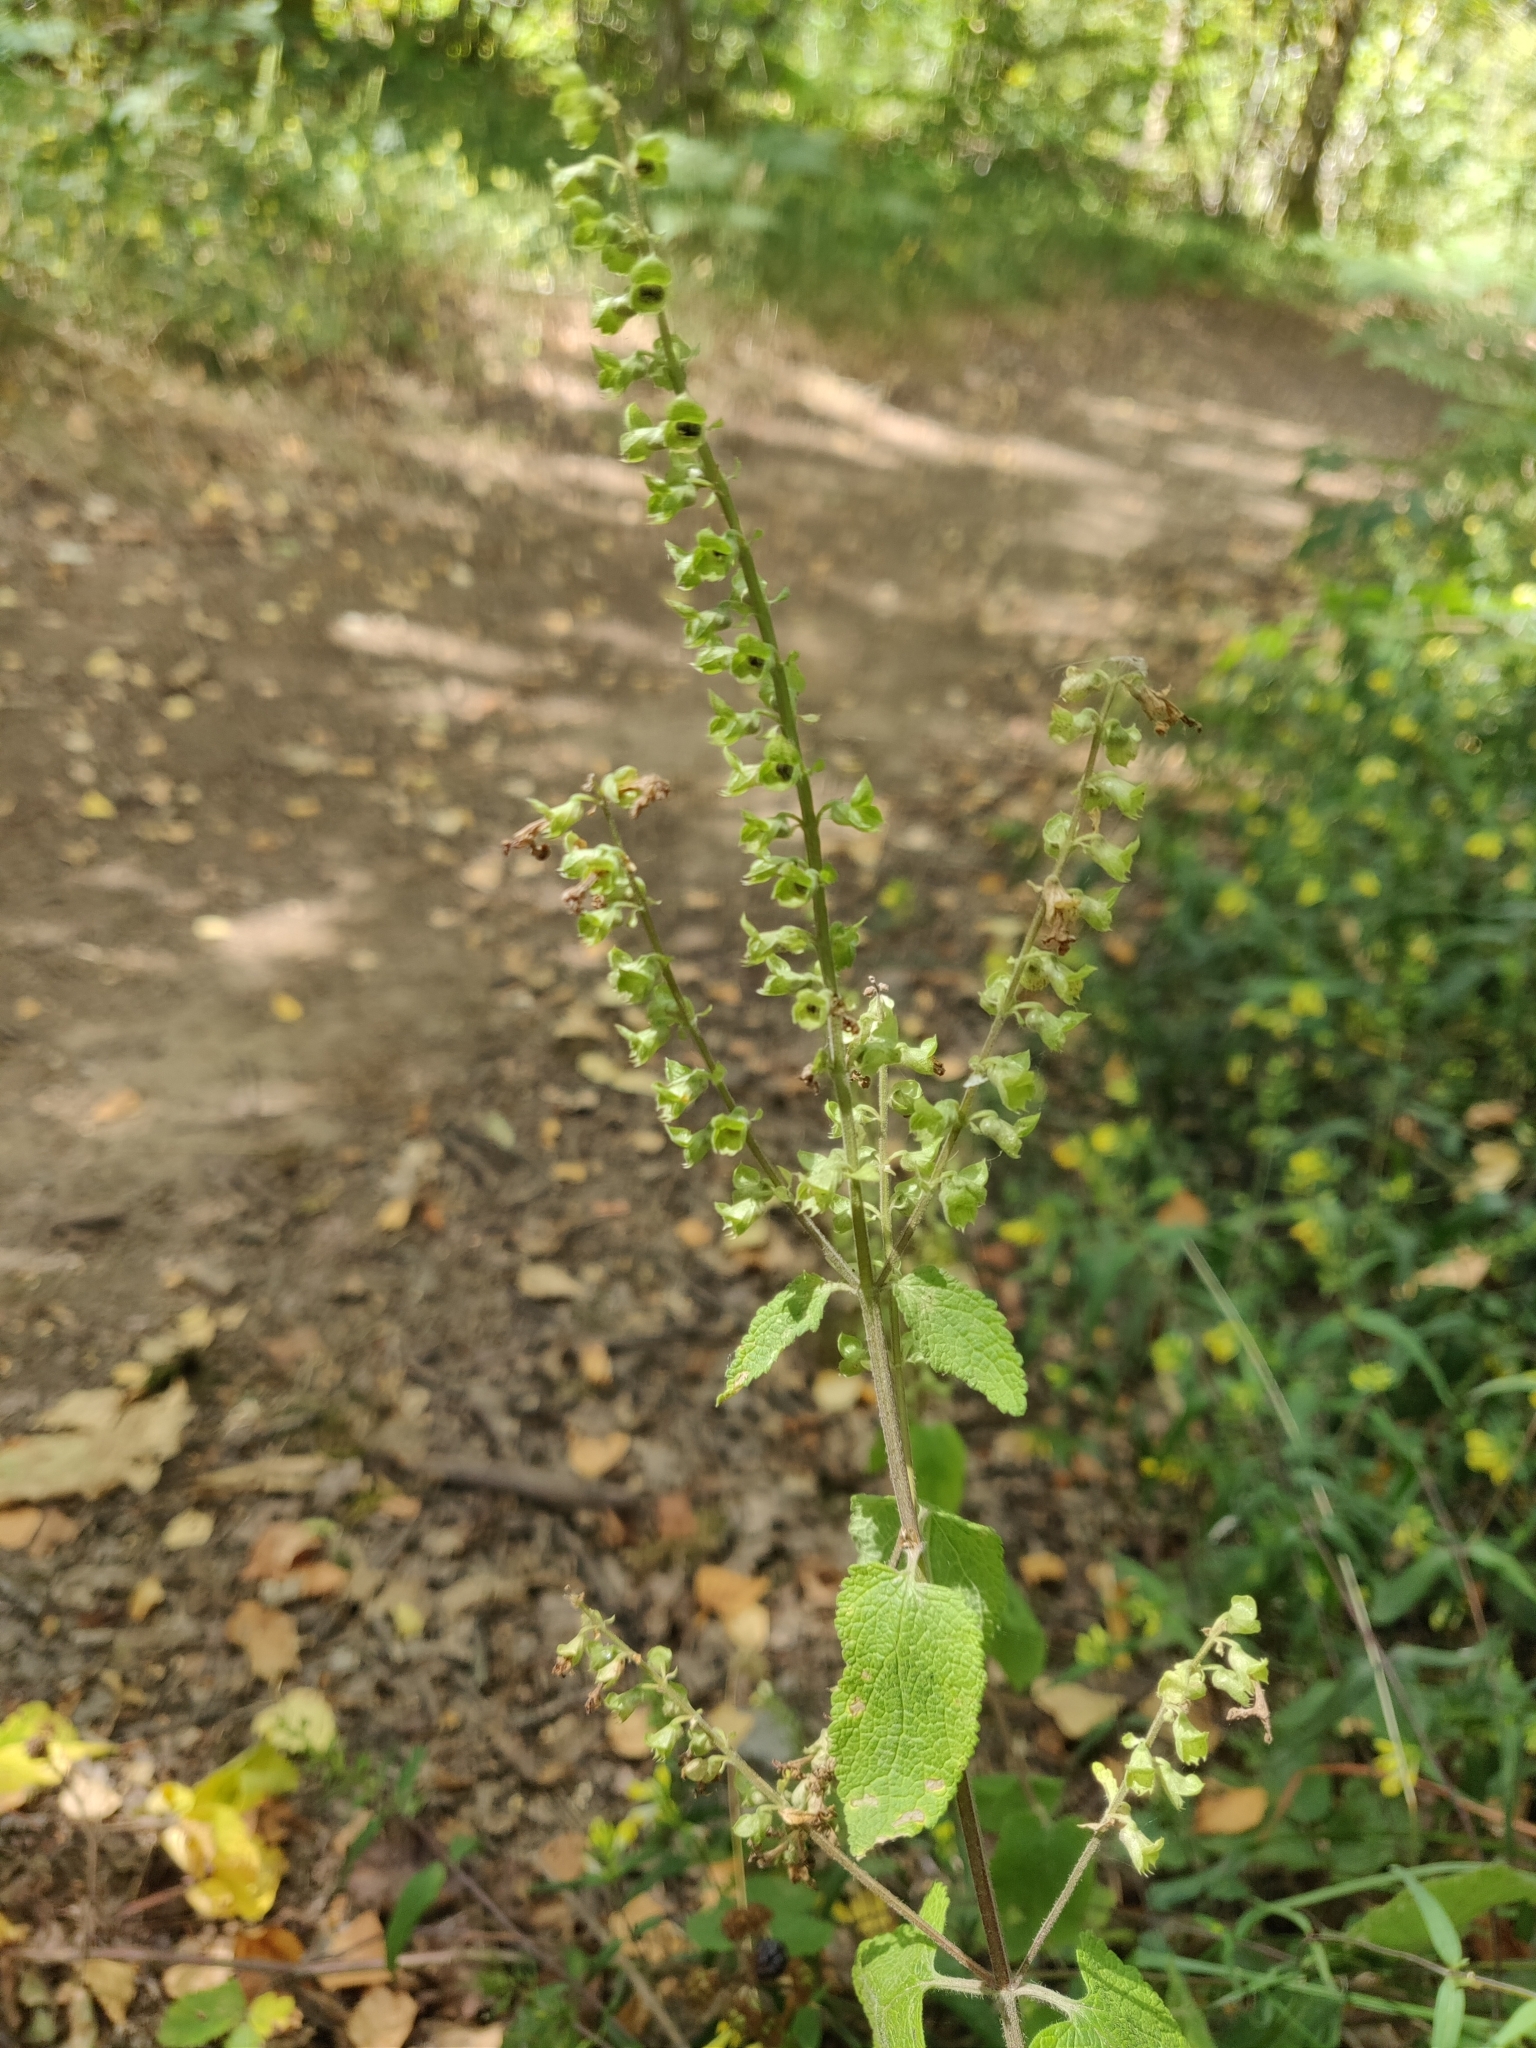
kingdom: Plantae
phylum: Tracheophyta
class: Magnoliopsida
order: Lamiales
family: Lamiaceae
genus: Teucrium
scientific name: Teucrium scorodonia
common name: Woodland germander
